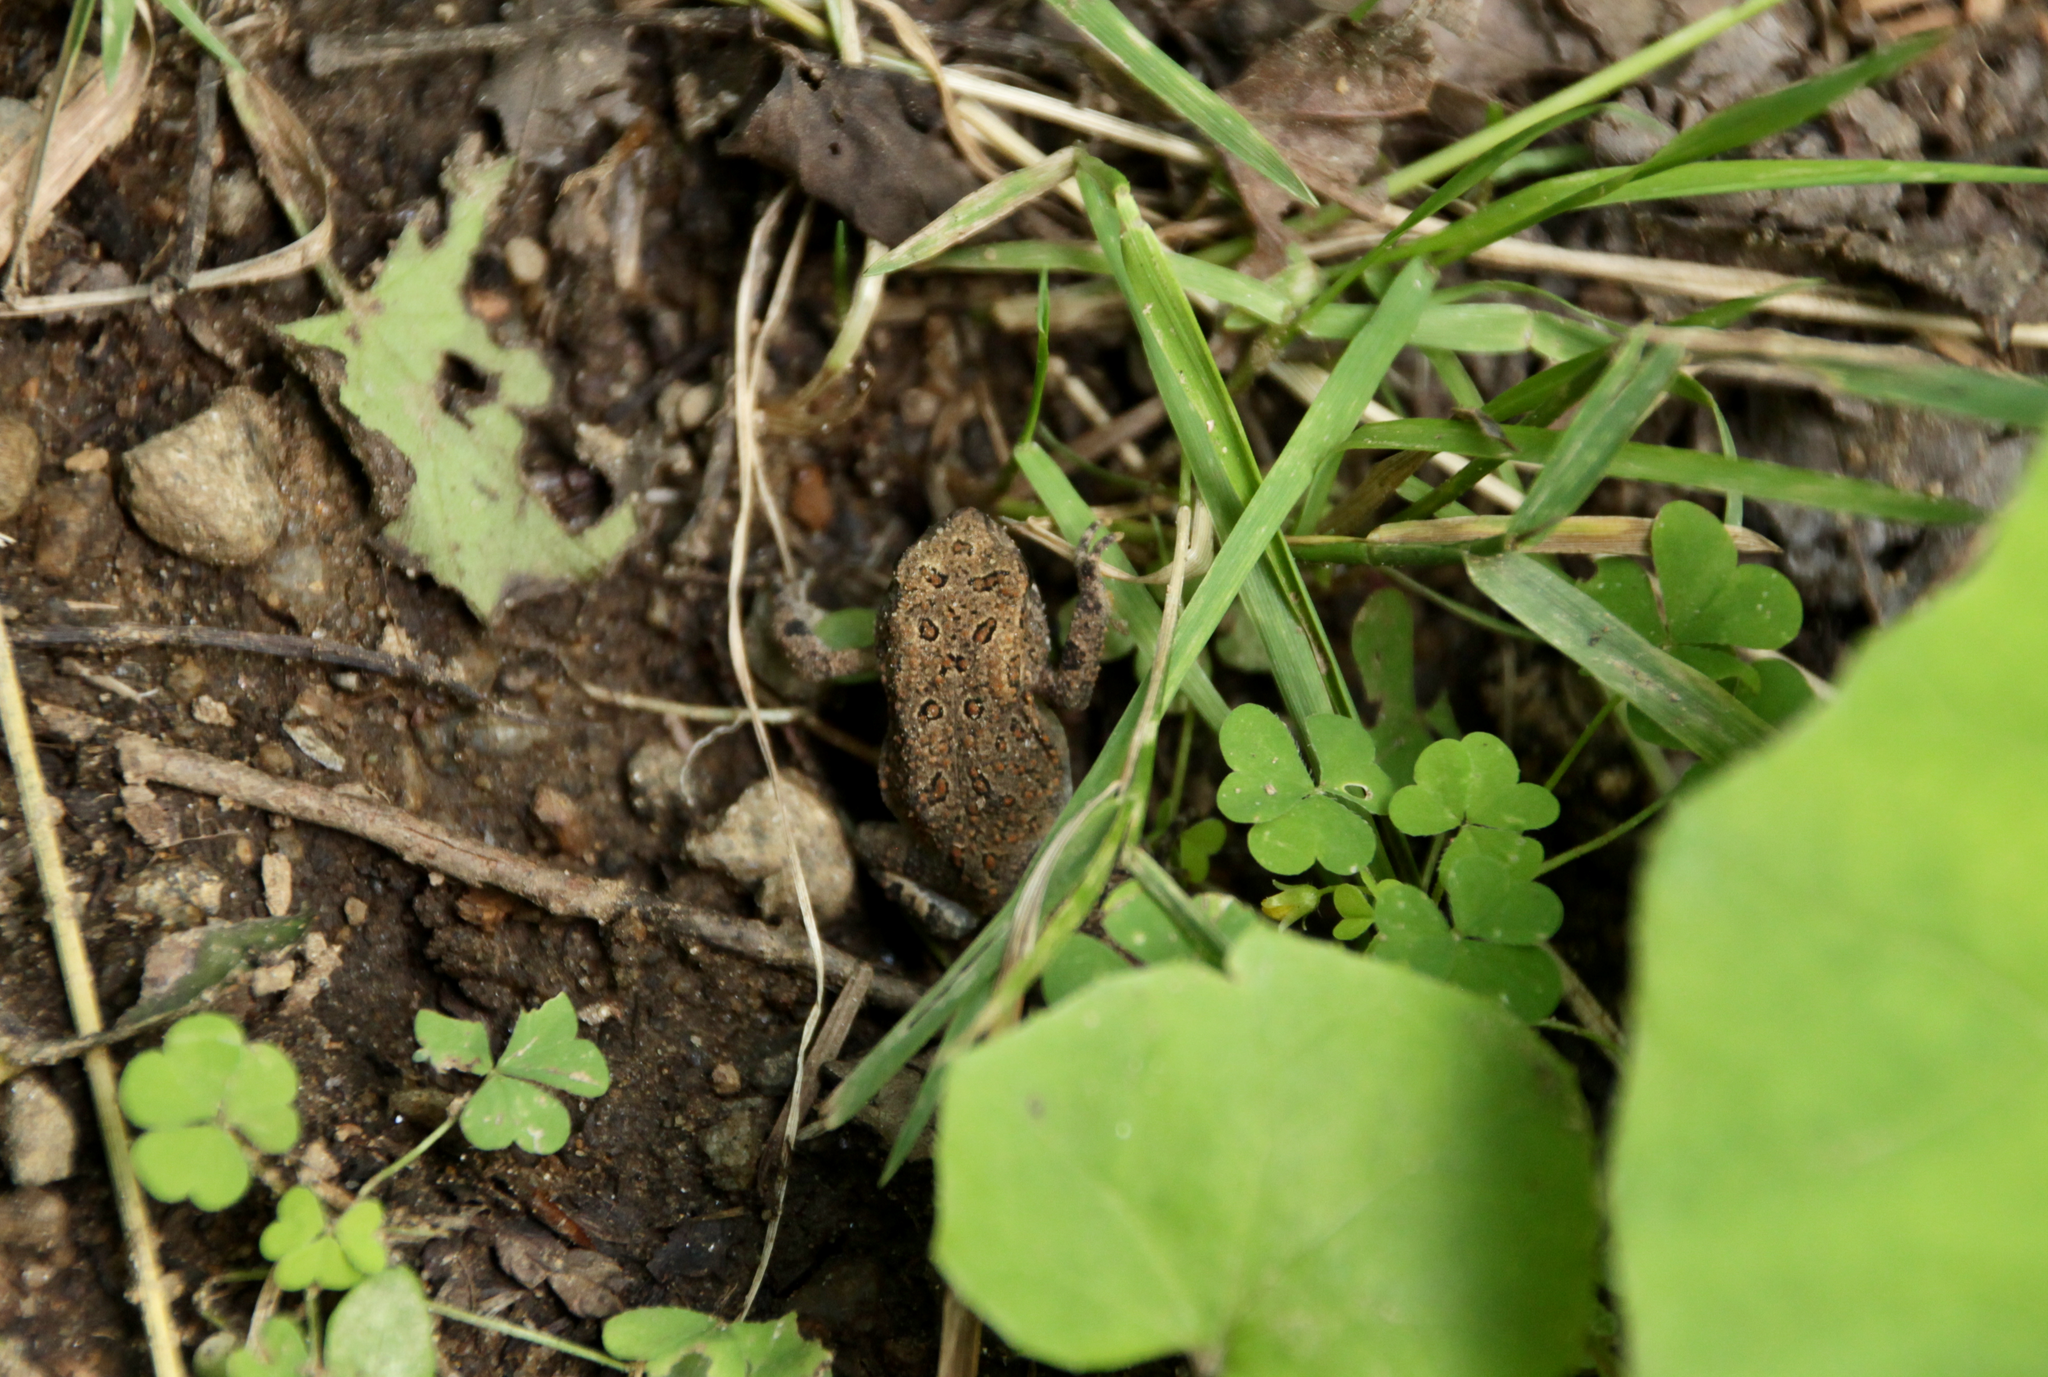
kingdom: Animalia
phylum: Chordata
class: Amphibia
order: Anura
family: Bufonidae
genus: Anaxyrus
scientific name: Anaxyrus americanus
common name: American toad
